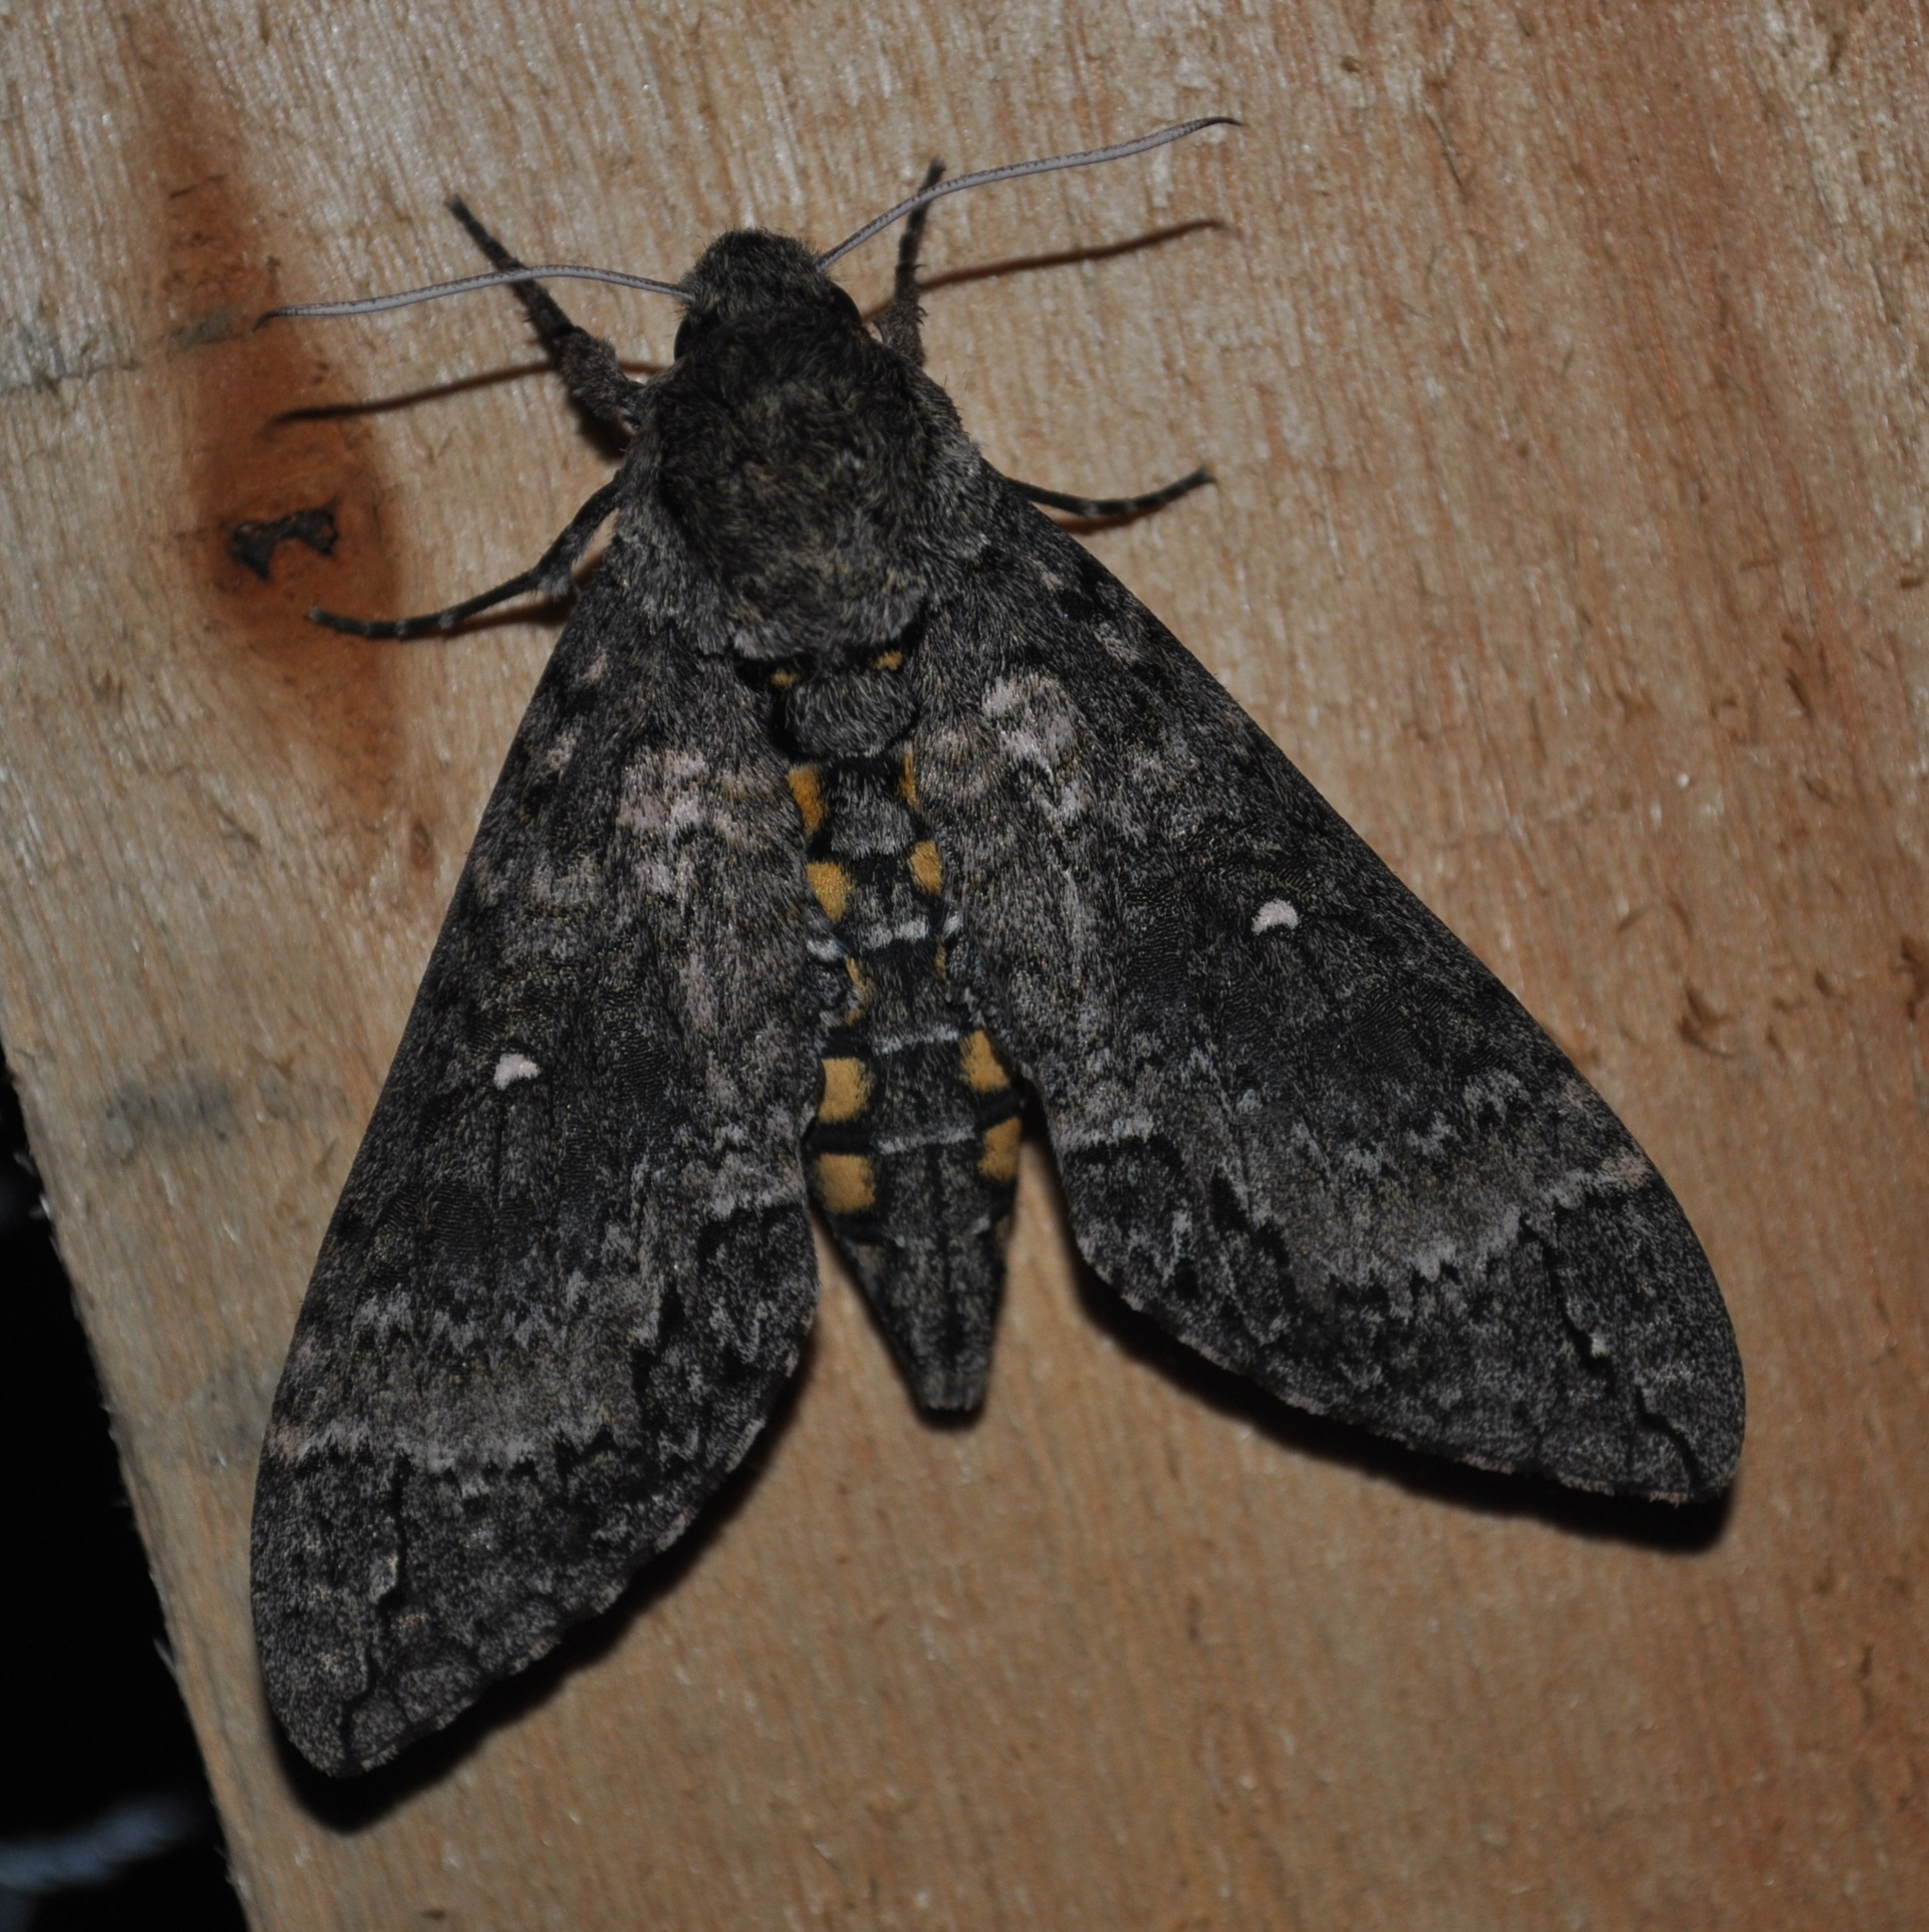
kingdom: Animalia
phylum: Arthropoda
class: Insecta
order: Lepidoptera
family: Sphingidae
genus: Manduca
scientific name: Manduca diffissa
